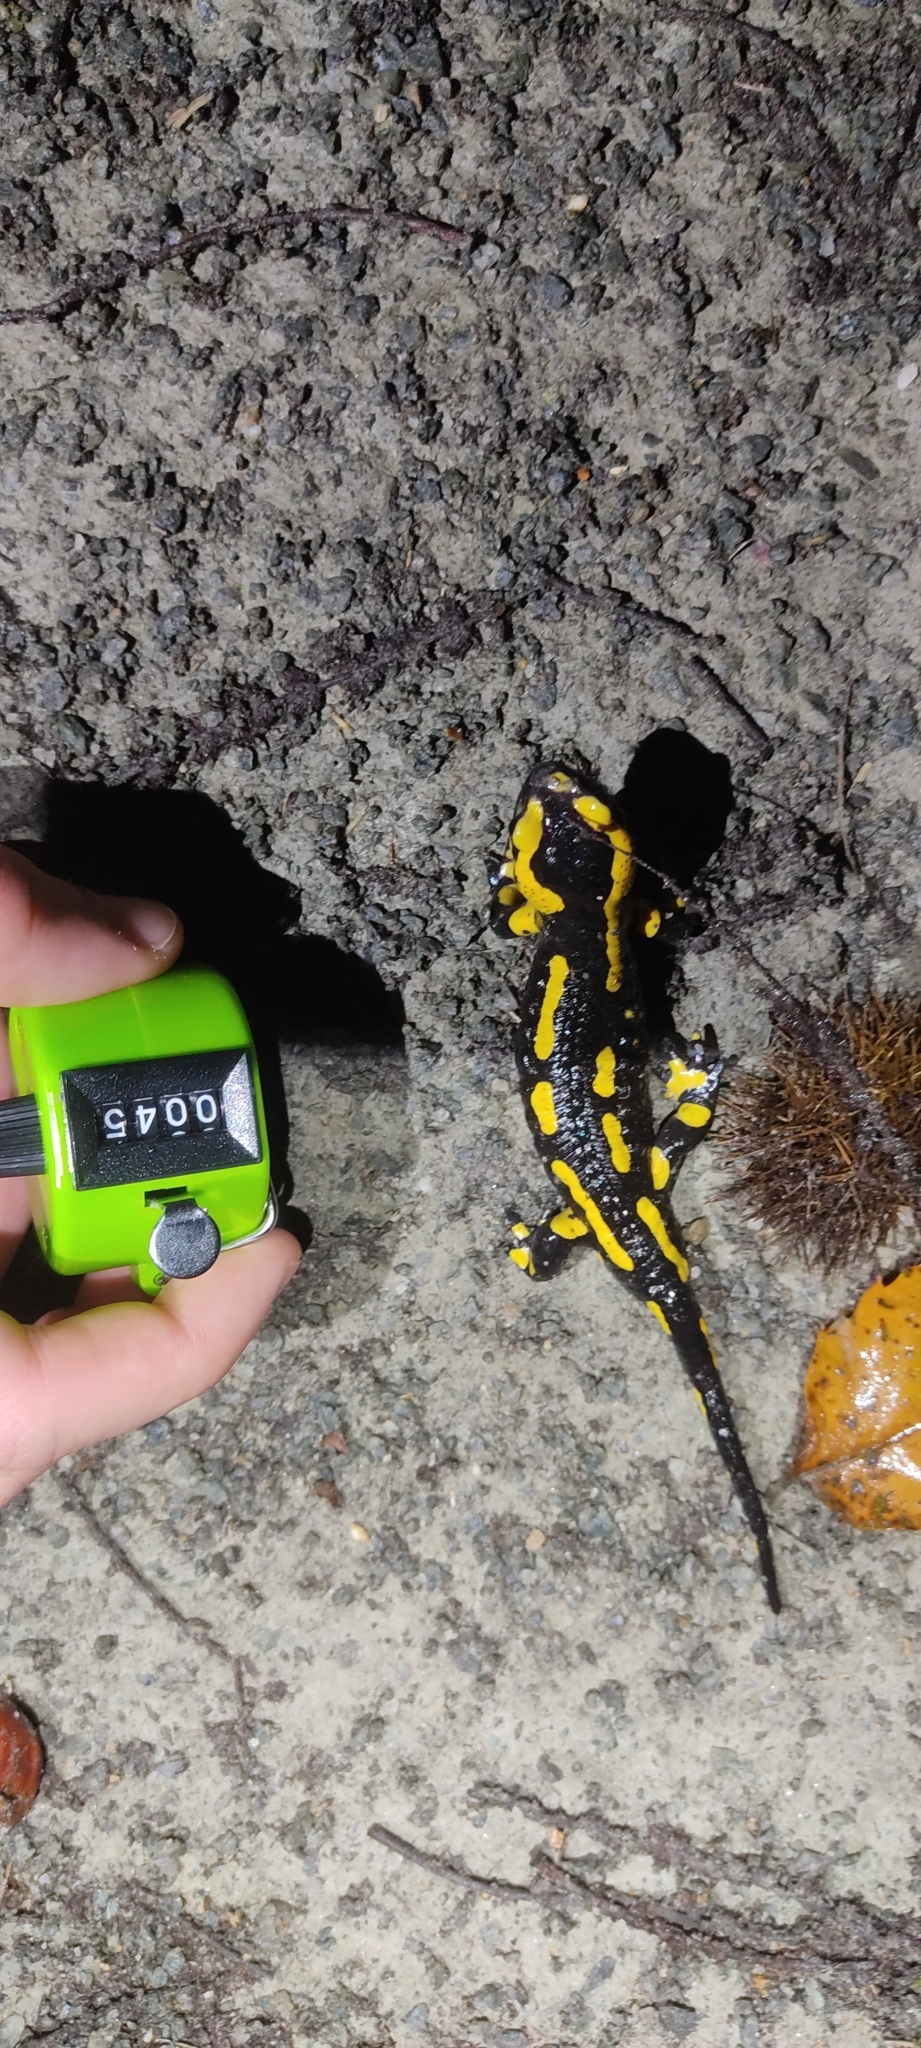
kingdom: Animalia
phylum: Chordata
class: Amphibia
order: Caudata
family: Salamandridae
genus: Salamandra
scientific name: Salamandra salamandra
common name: Fire salamander
